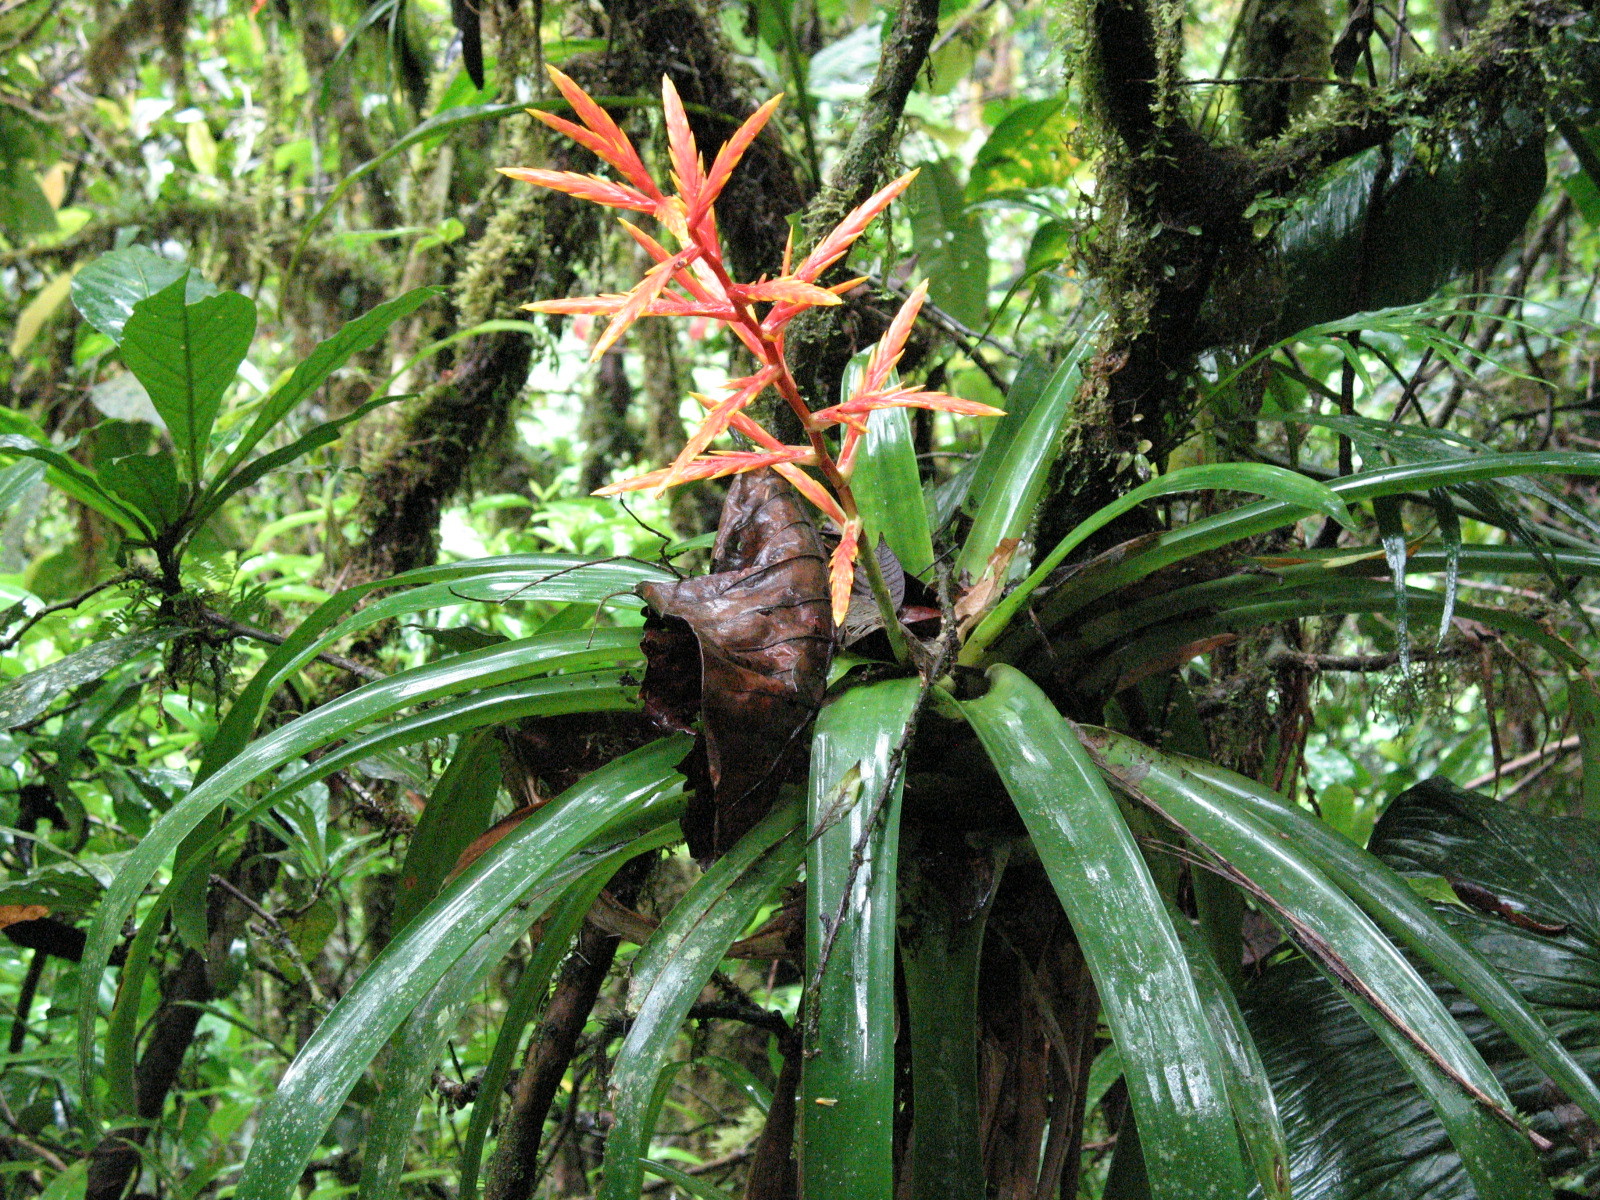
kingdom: Plantae
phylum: Tracheophyta
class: Liliopsida
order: Poales
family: Bromeliaceae
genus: Vriesea
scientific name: Vriesea zamorensis
